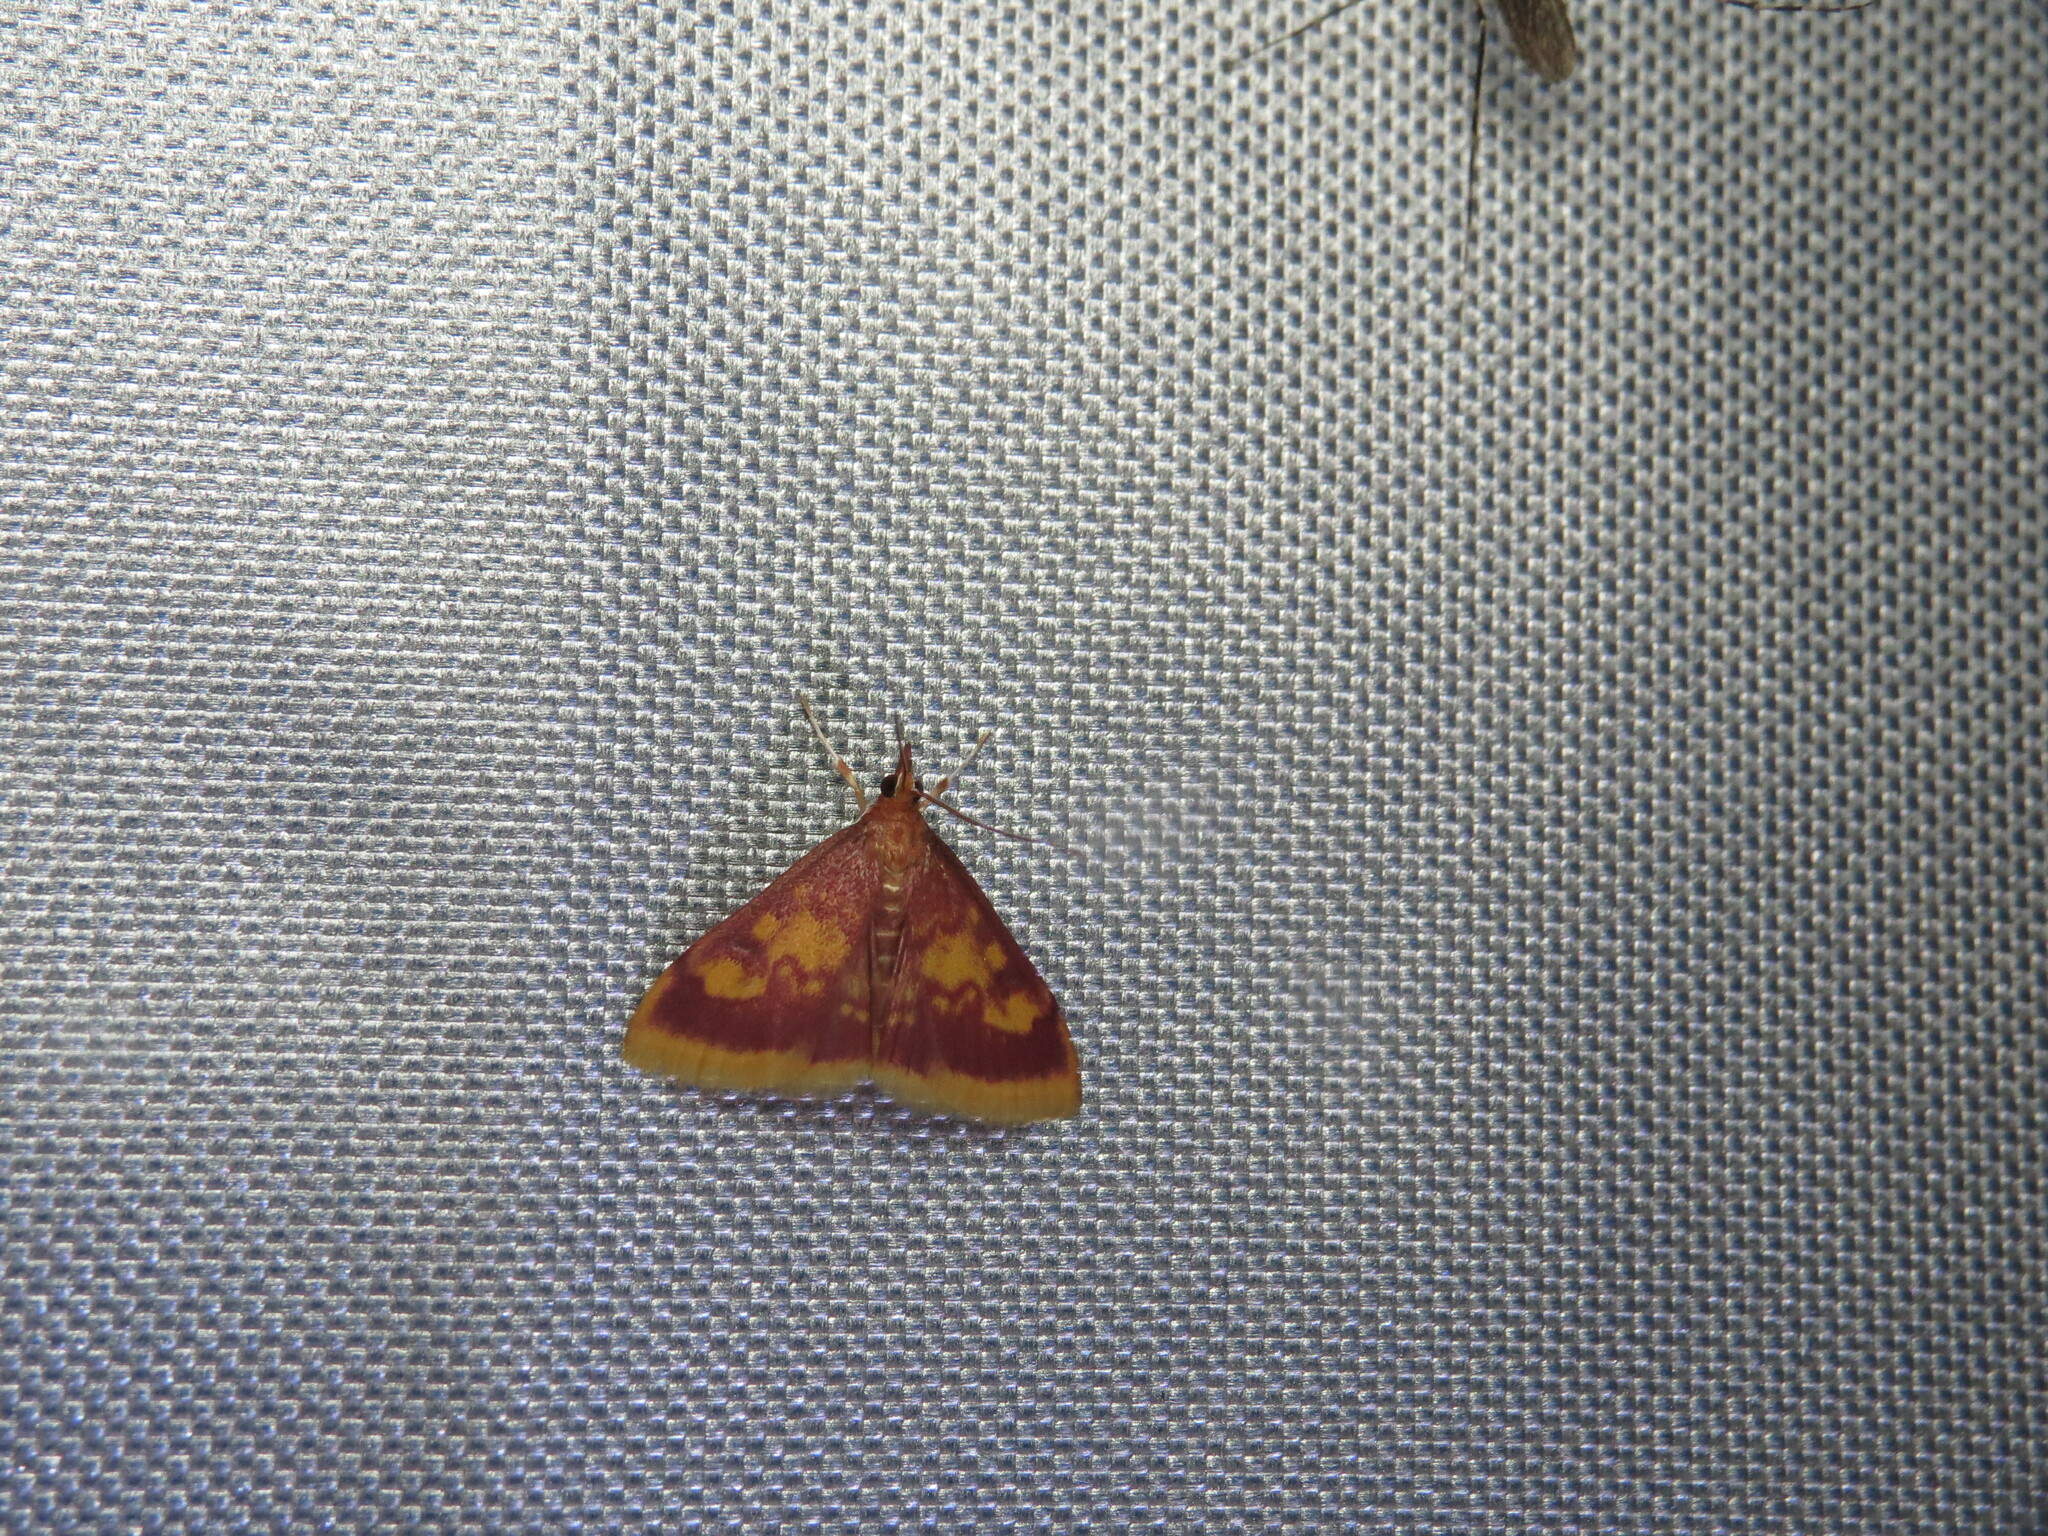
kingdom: Animalia
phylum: Arthropoda
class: Insecta
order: Lepidoptera
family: Crambidae
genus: Pyrausta
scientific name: Pyrausta acrionalis
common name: Mint-loving pyrausta moth
